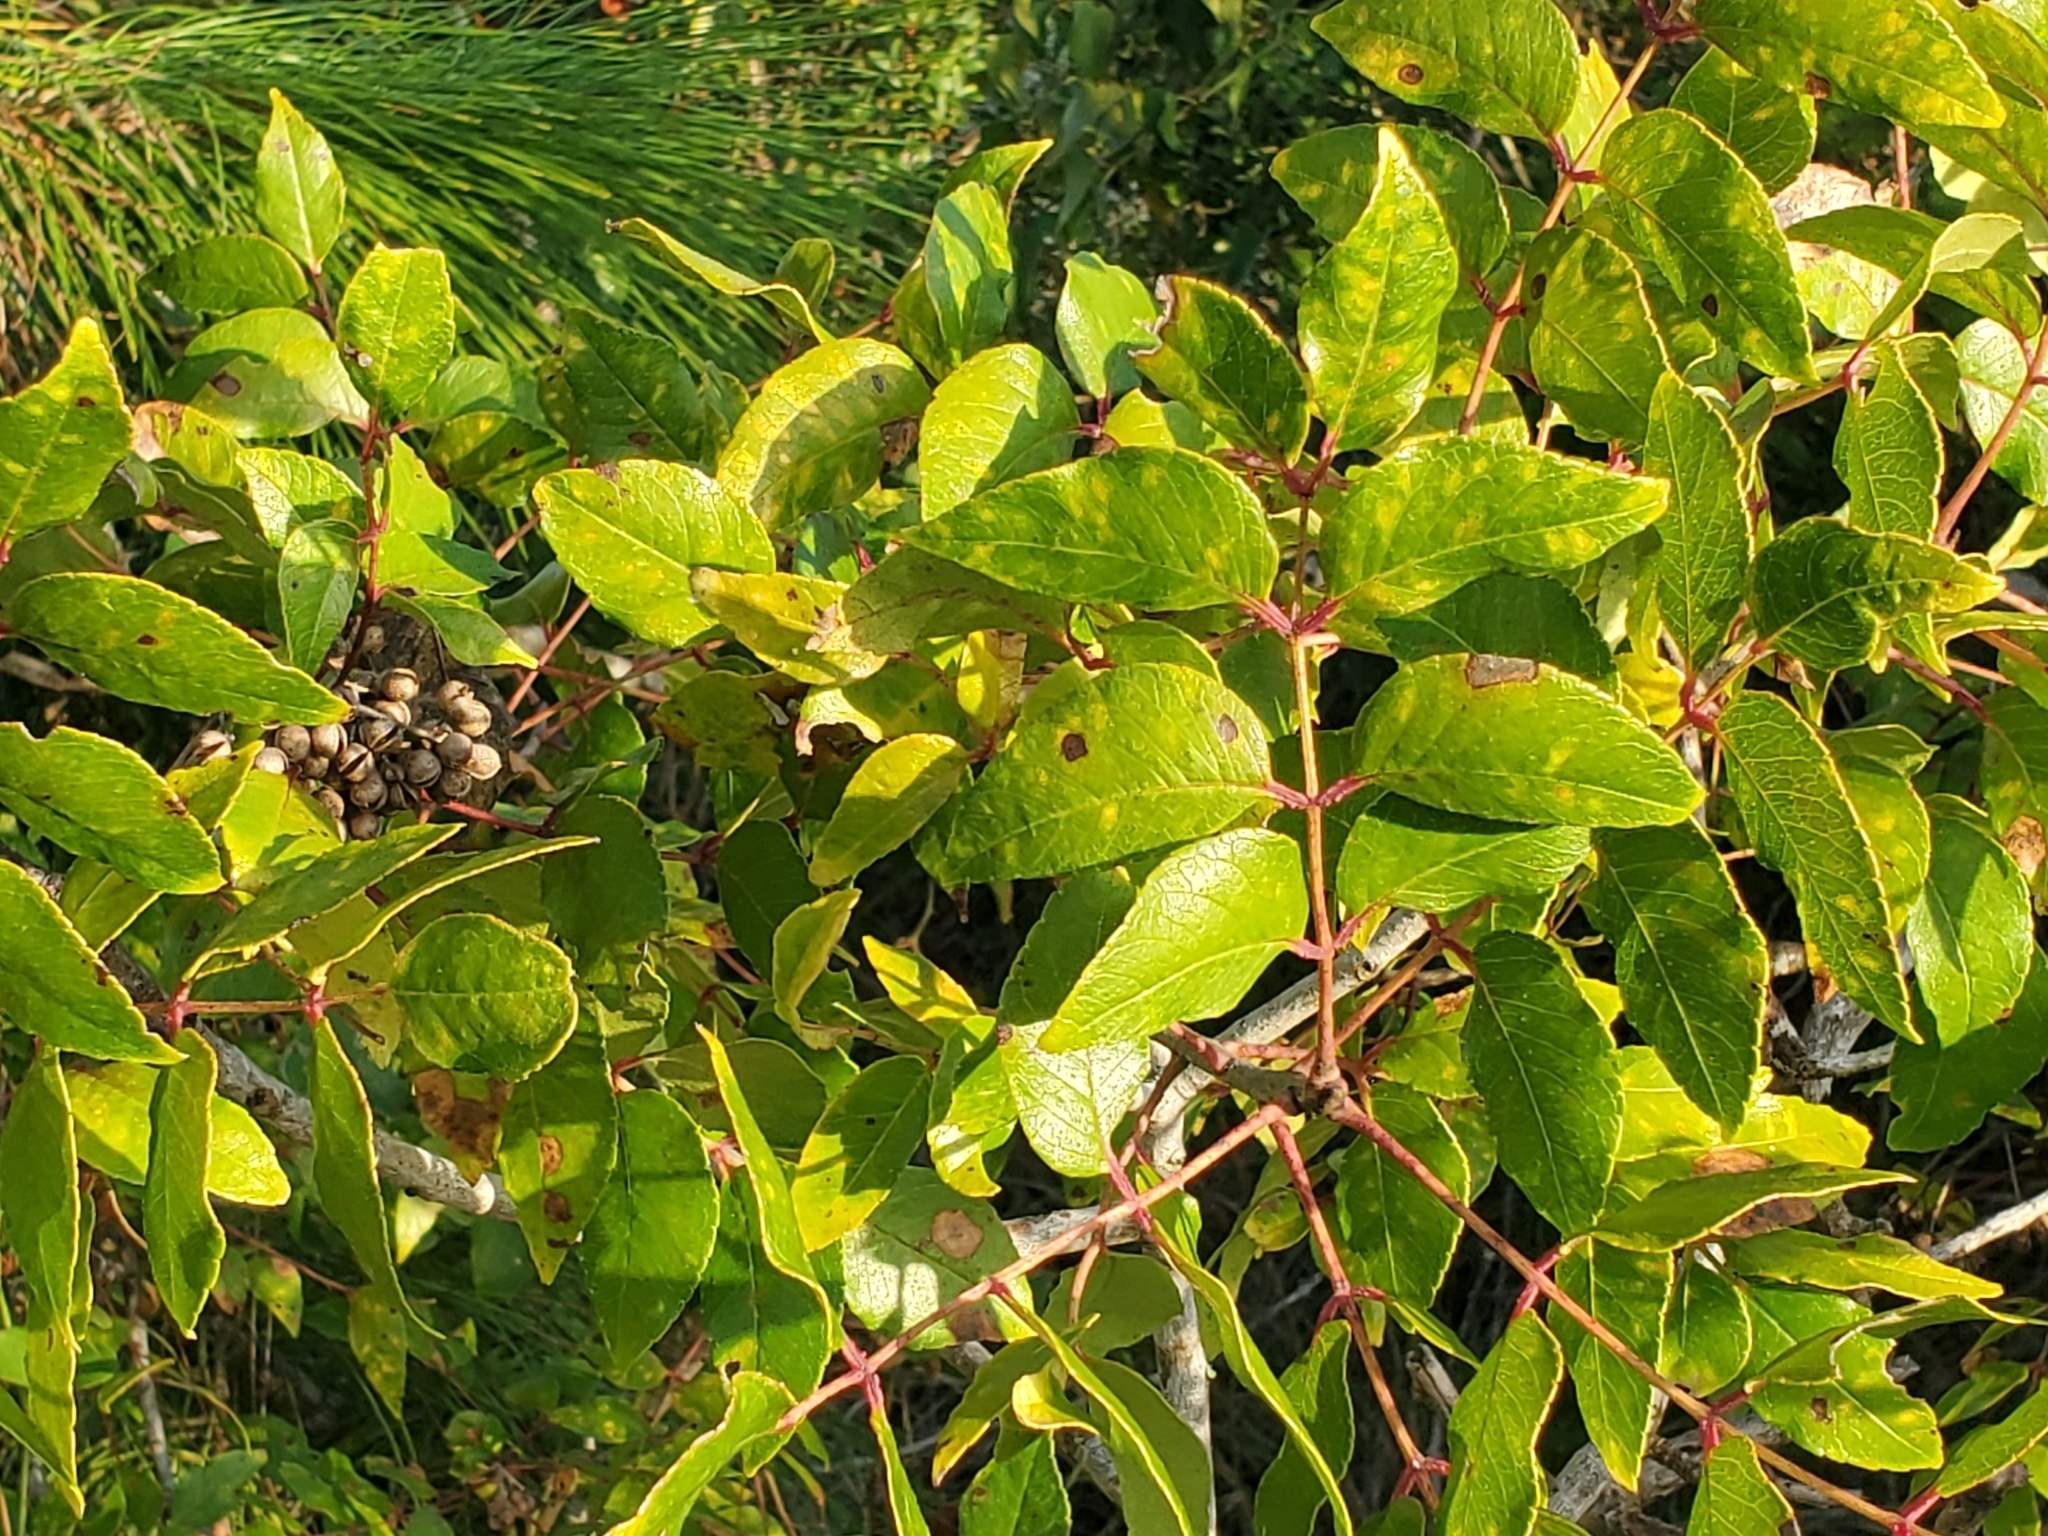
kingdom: Plantae
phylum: Tracheophyta
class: Magnoliopsida
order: Sapindales
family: Rutaceae
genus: Zanthoxylum
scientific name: Zanthoxylum clava-herculis
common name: Hercules'-club
